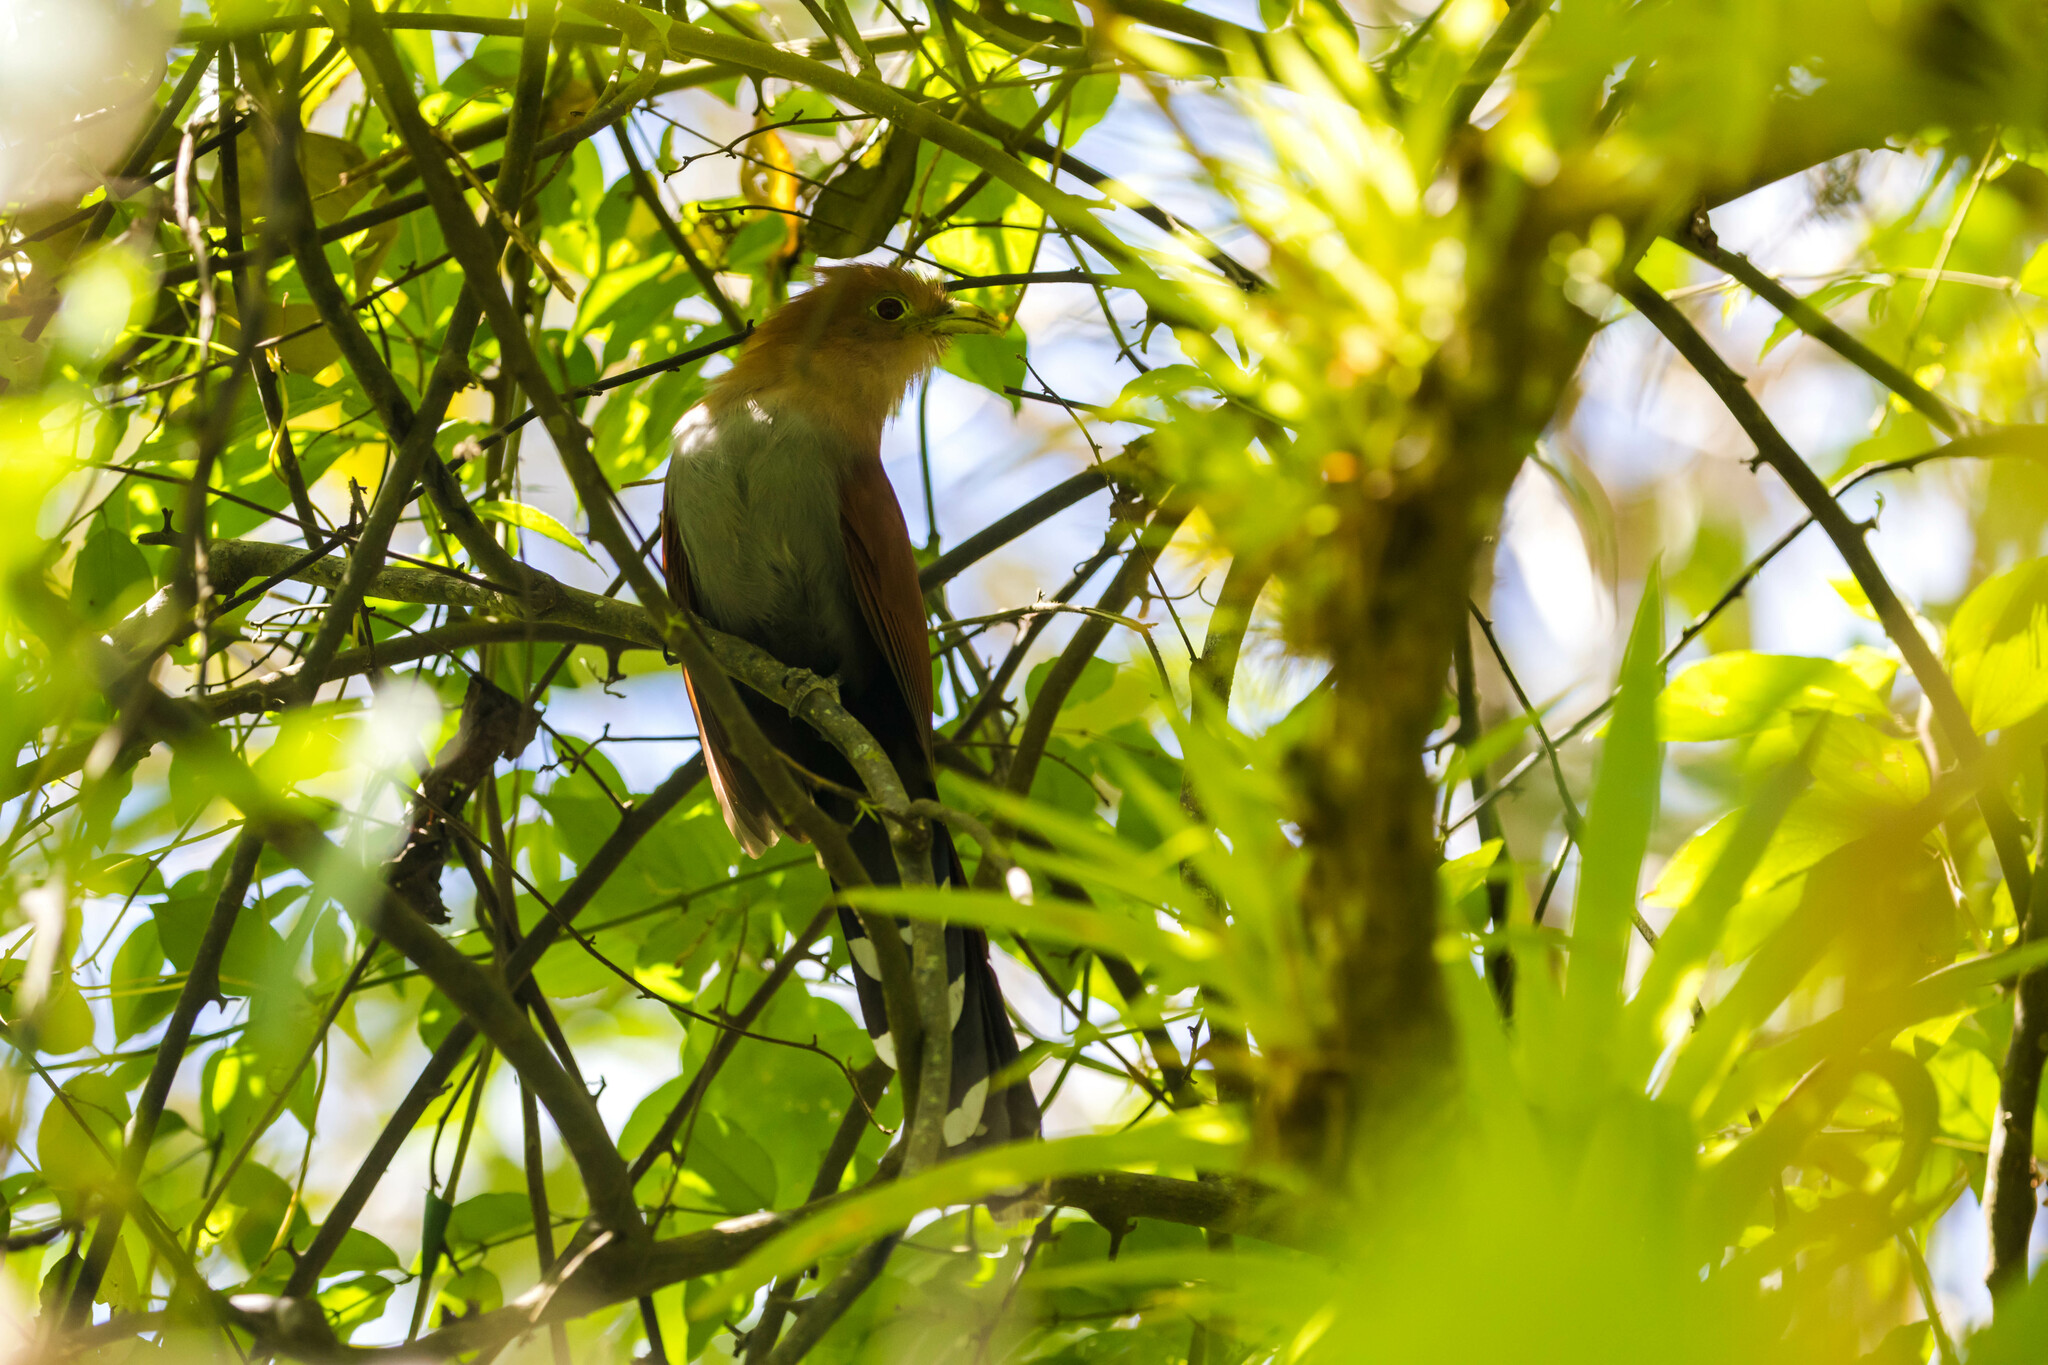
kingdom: Animalia
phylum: Chordata
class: Aves
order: Cuculiformes
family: Cuculidae
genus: Piaya
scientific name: Piaya cayana
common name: Squirrel cuckoo
